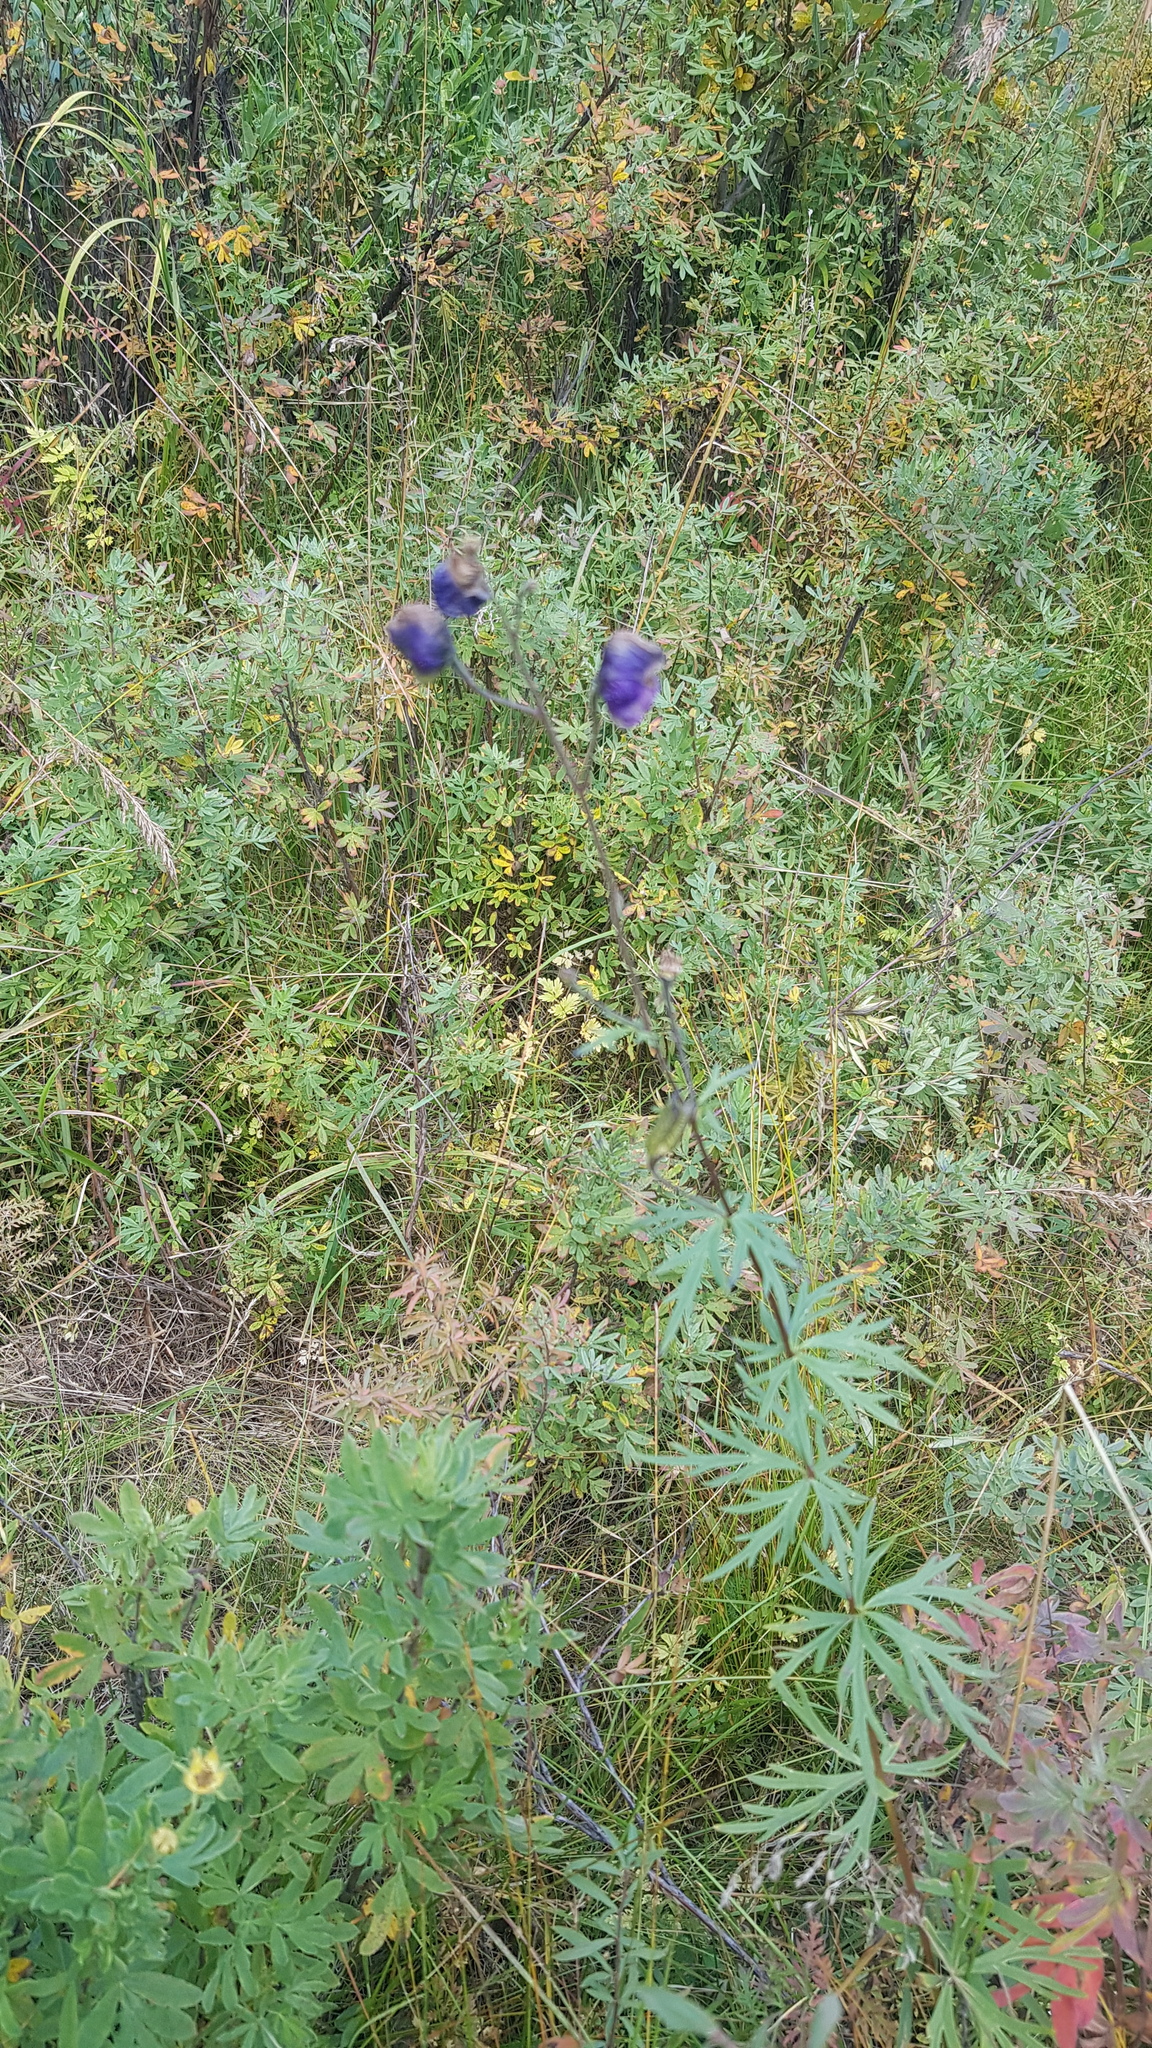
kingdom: Plantae
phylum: Tracheophyta
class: Magnoliopsida
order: Ranunculales
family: Ranunculaceae
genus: Aconitum
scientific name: Aconitum baicalense
